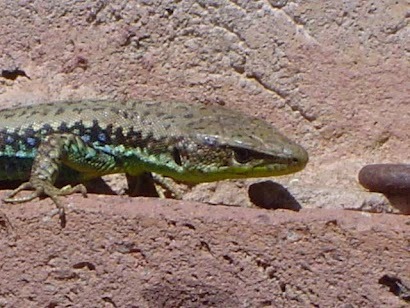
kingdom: Animalia
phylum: Chordata
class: Squamata
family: Lacertidae
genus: Darevskia
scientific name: Darevskia raddei
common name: Radde's lizard
